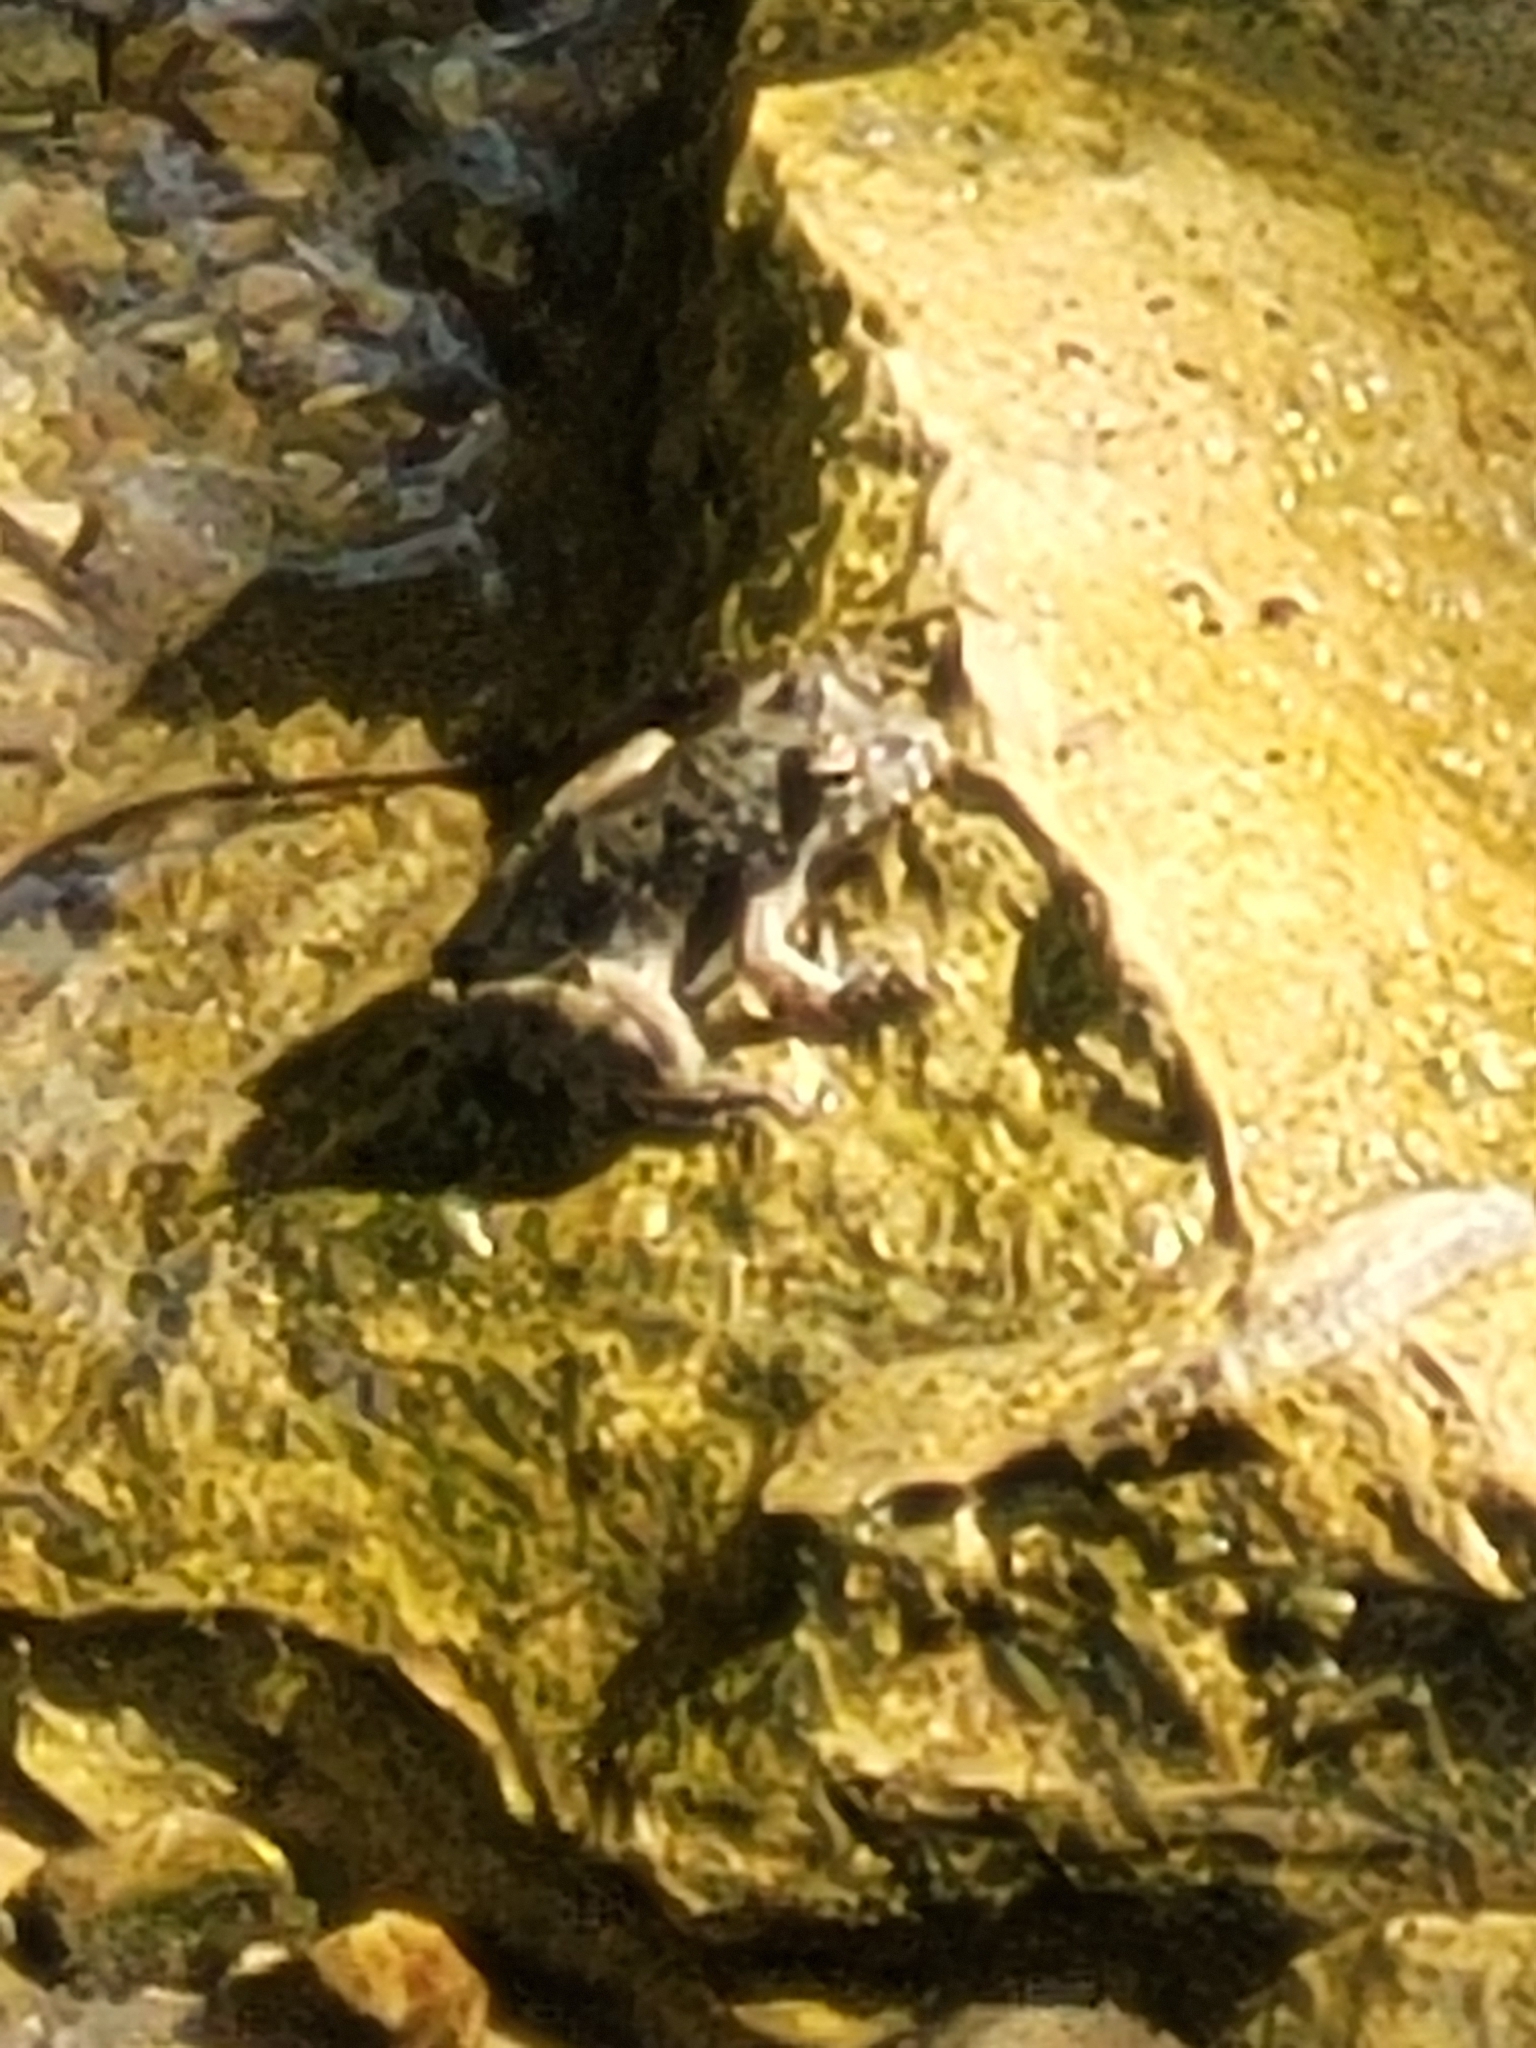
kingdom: Animalia
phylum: Chordata
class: Amphibia
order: Anura
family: Hylidae
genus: Acris
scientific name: Acris blanchardi
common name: Blanchard's cricket frog
